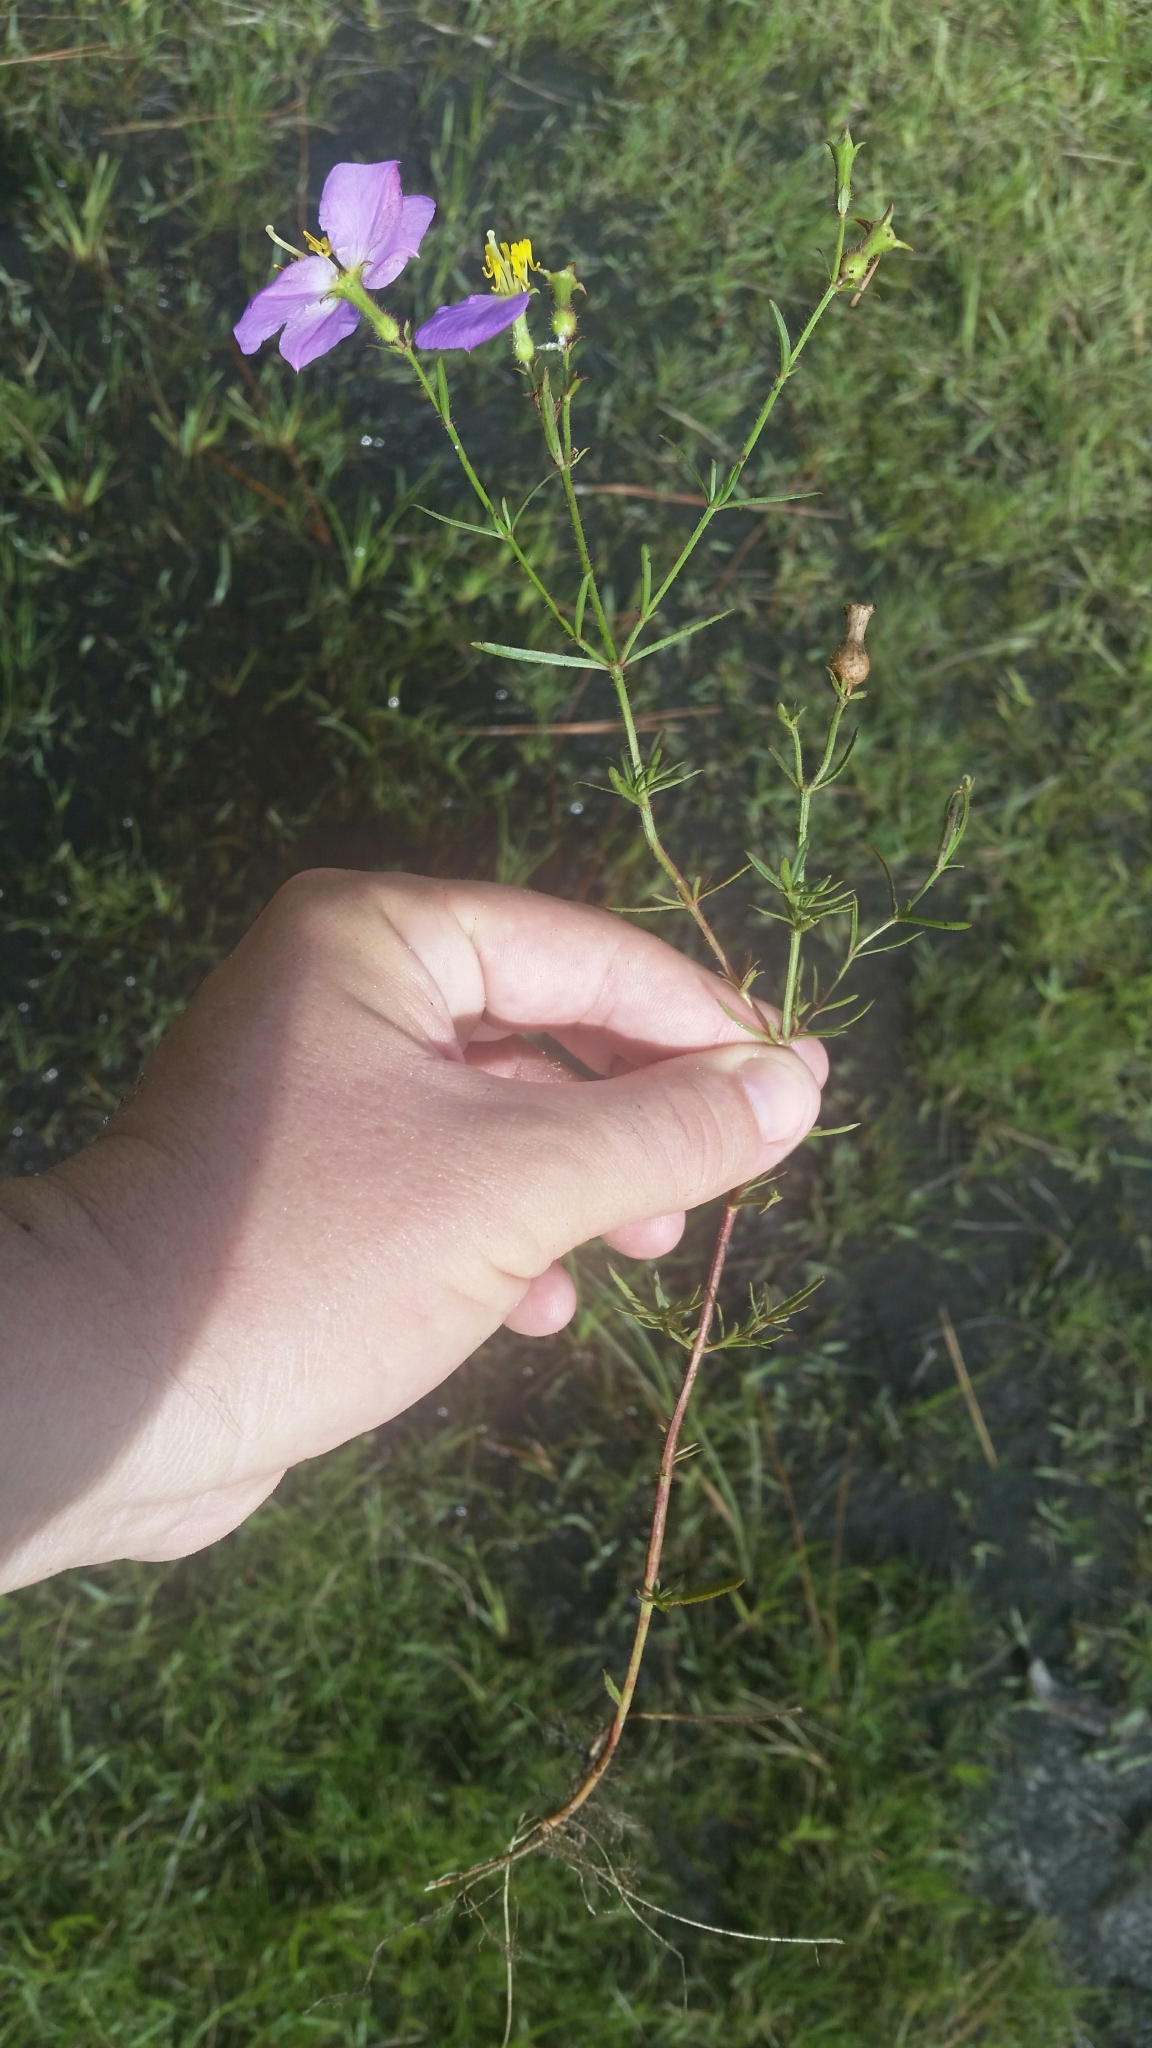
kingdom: Plantae
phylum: Tracheophyta
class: Magnoliopsida
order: Myrtales
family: Melastomataceae
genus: Rhexia
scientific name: Rhexia cubensis
